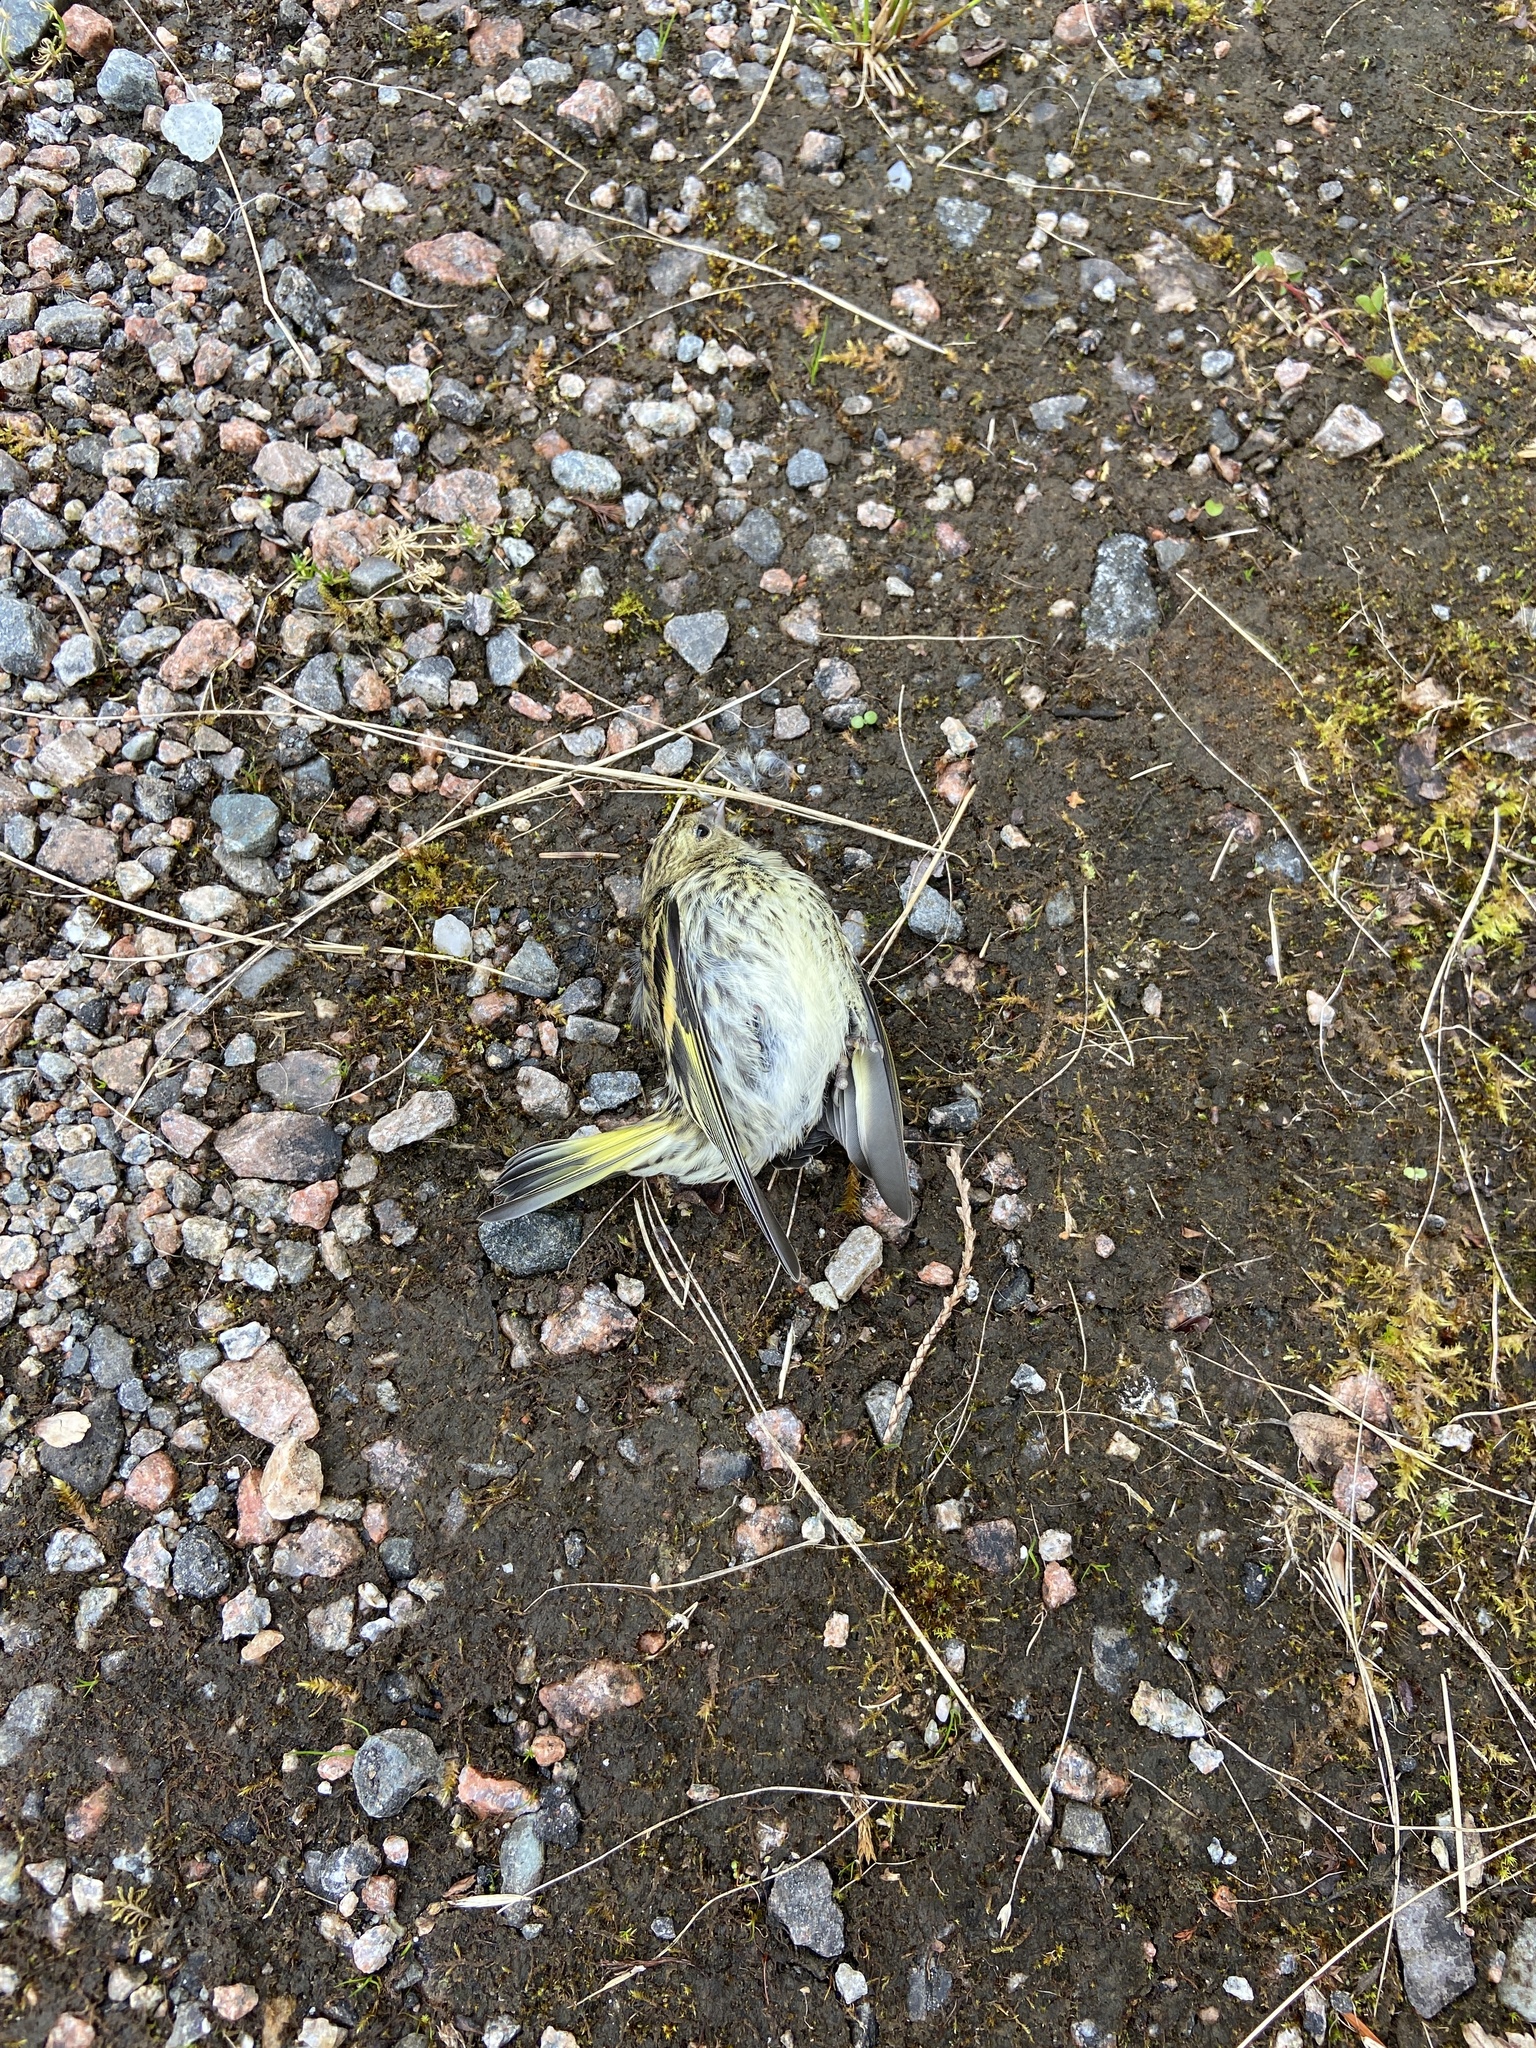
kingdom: Animalia
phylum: Chordata
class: Aves
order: Passeriformes
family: Fringillidae
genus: Spinus
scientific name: Spinus spinus
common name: Eurasian siskin
